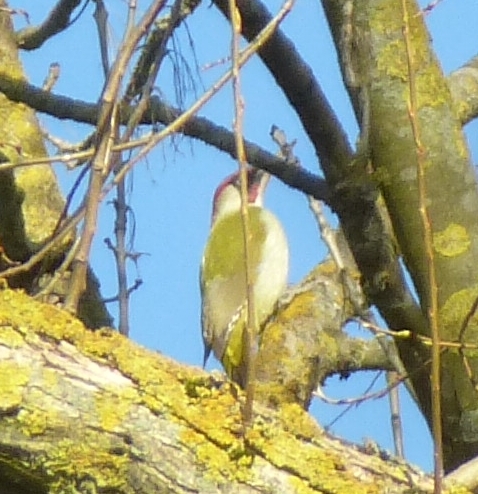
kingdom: Animalia
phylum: Chordata
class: Aves
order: Piciformes
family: Picidae
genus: Picus
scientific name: Picus viridis
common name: European green woodpecker
